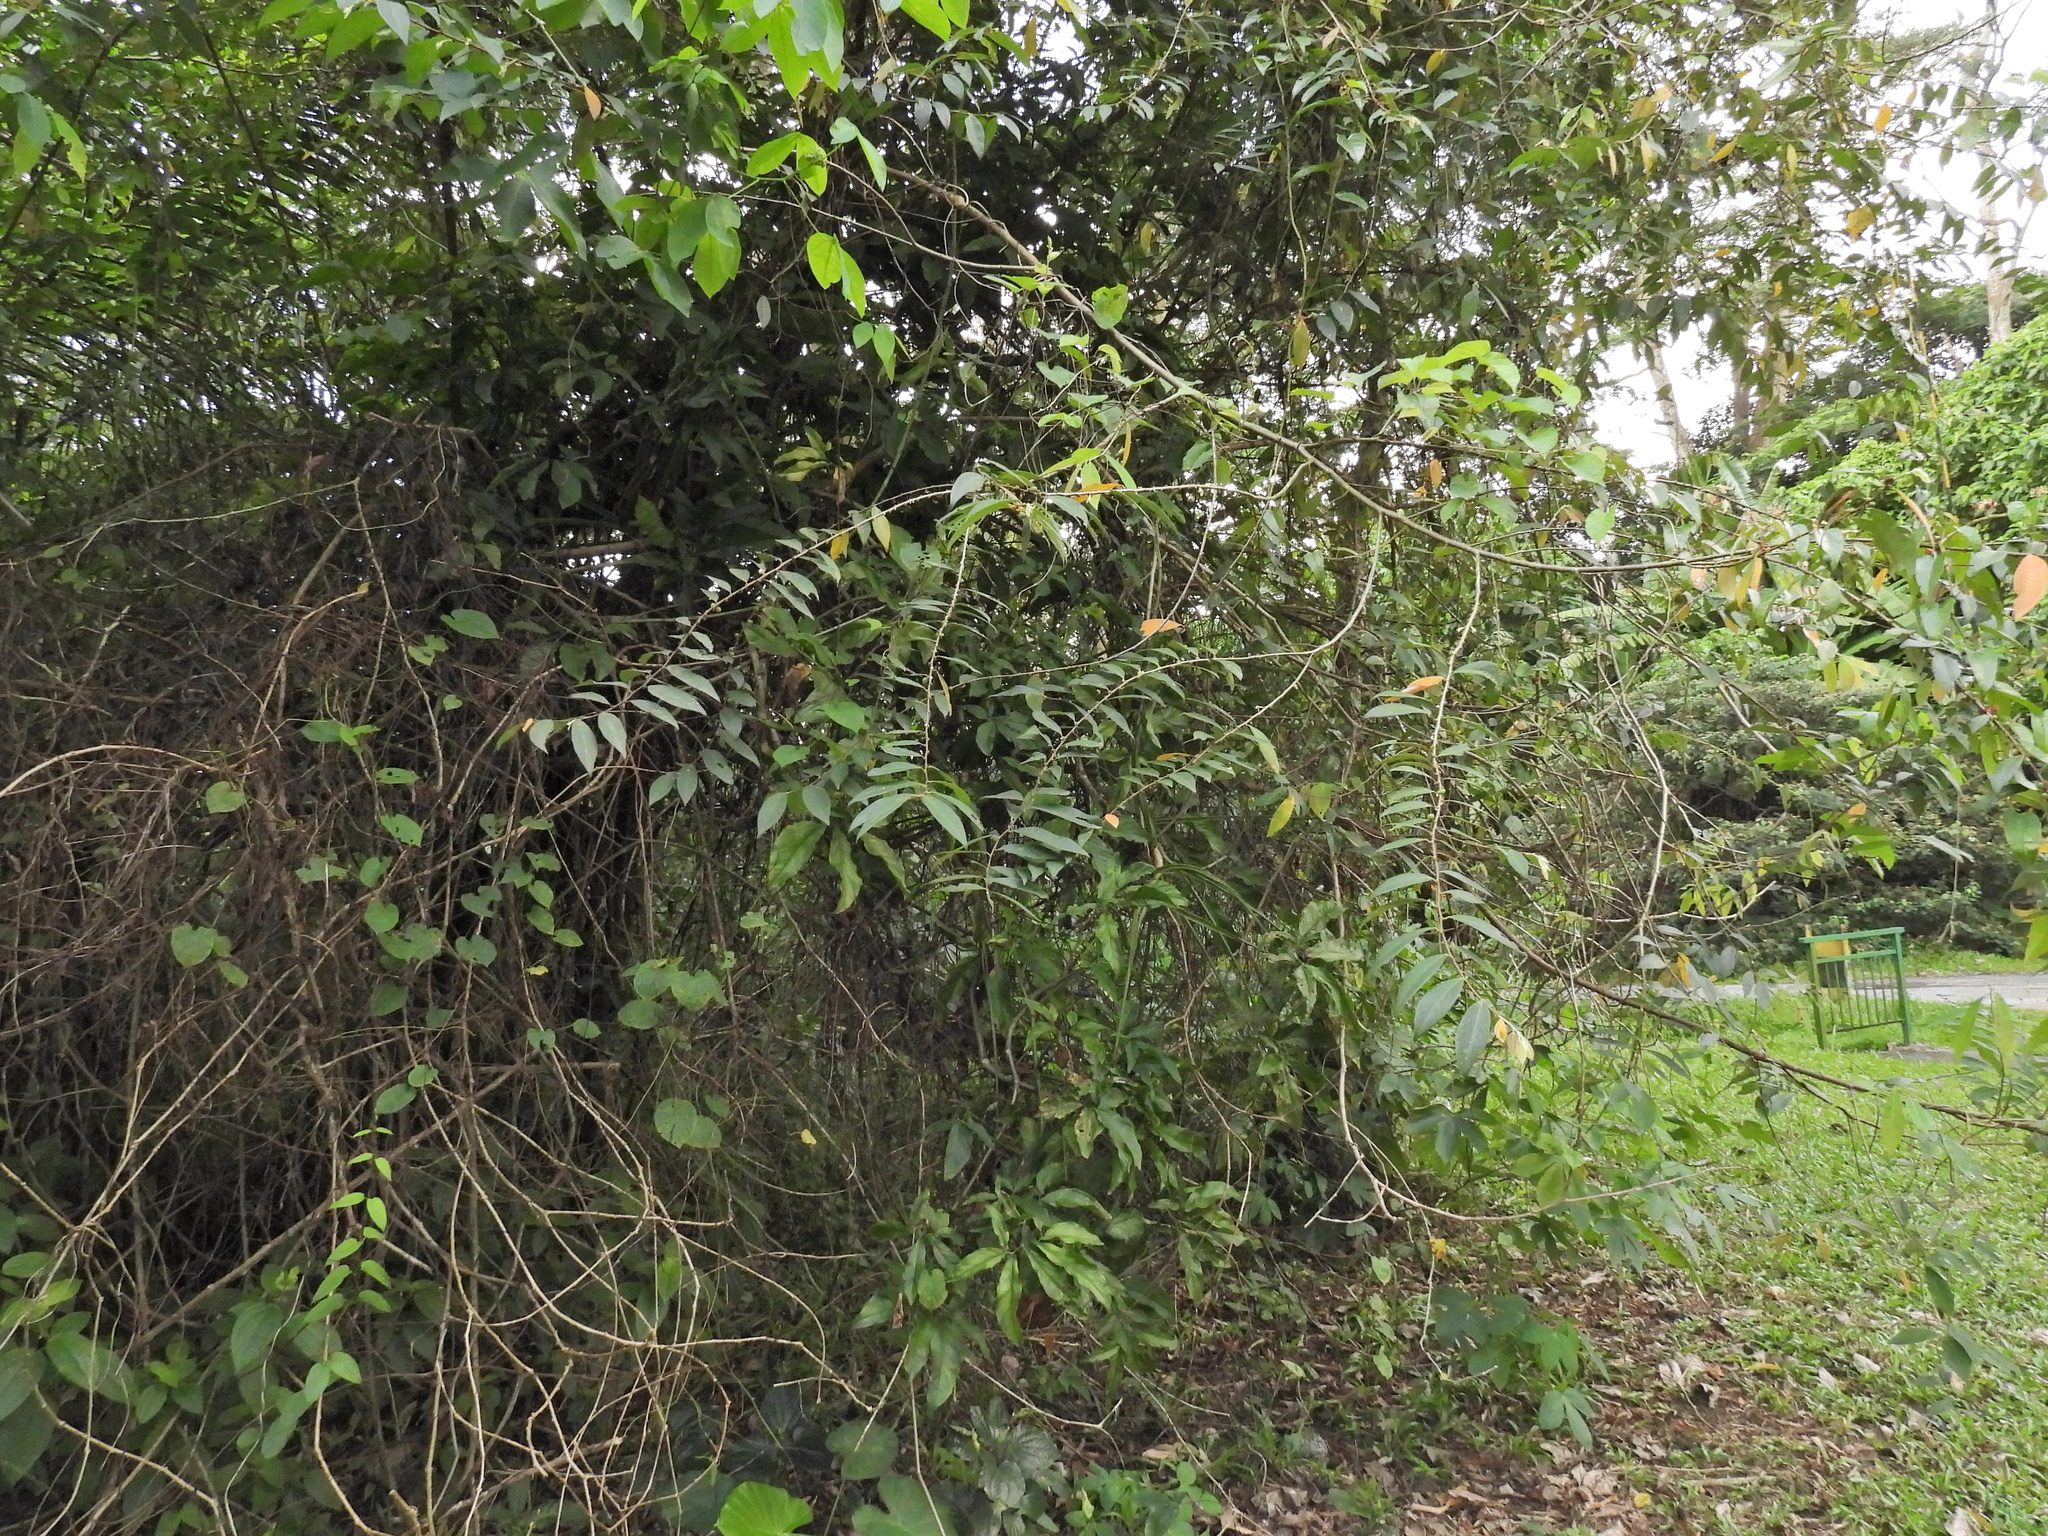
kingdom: Plantae
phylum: Tracheophyta
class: Magnoliopsida
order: Malpighiales
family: Phyllanthaceae
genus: Bridelia
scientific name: Bridelia tomentosa
